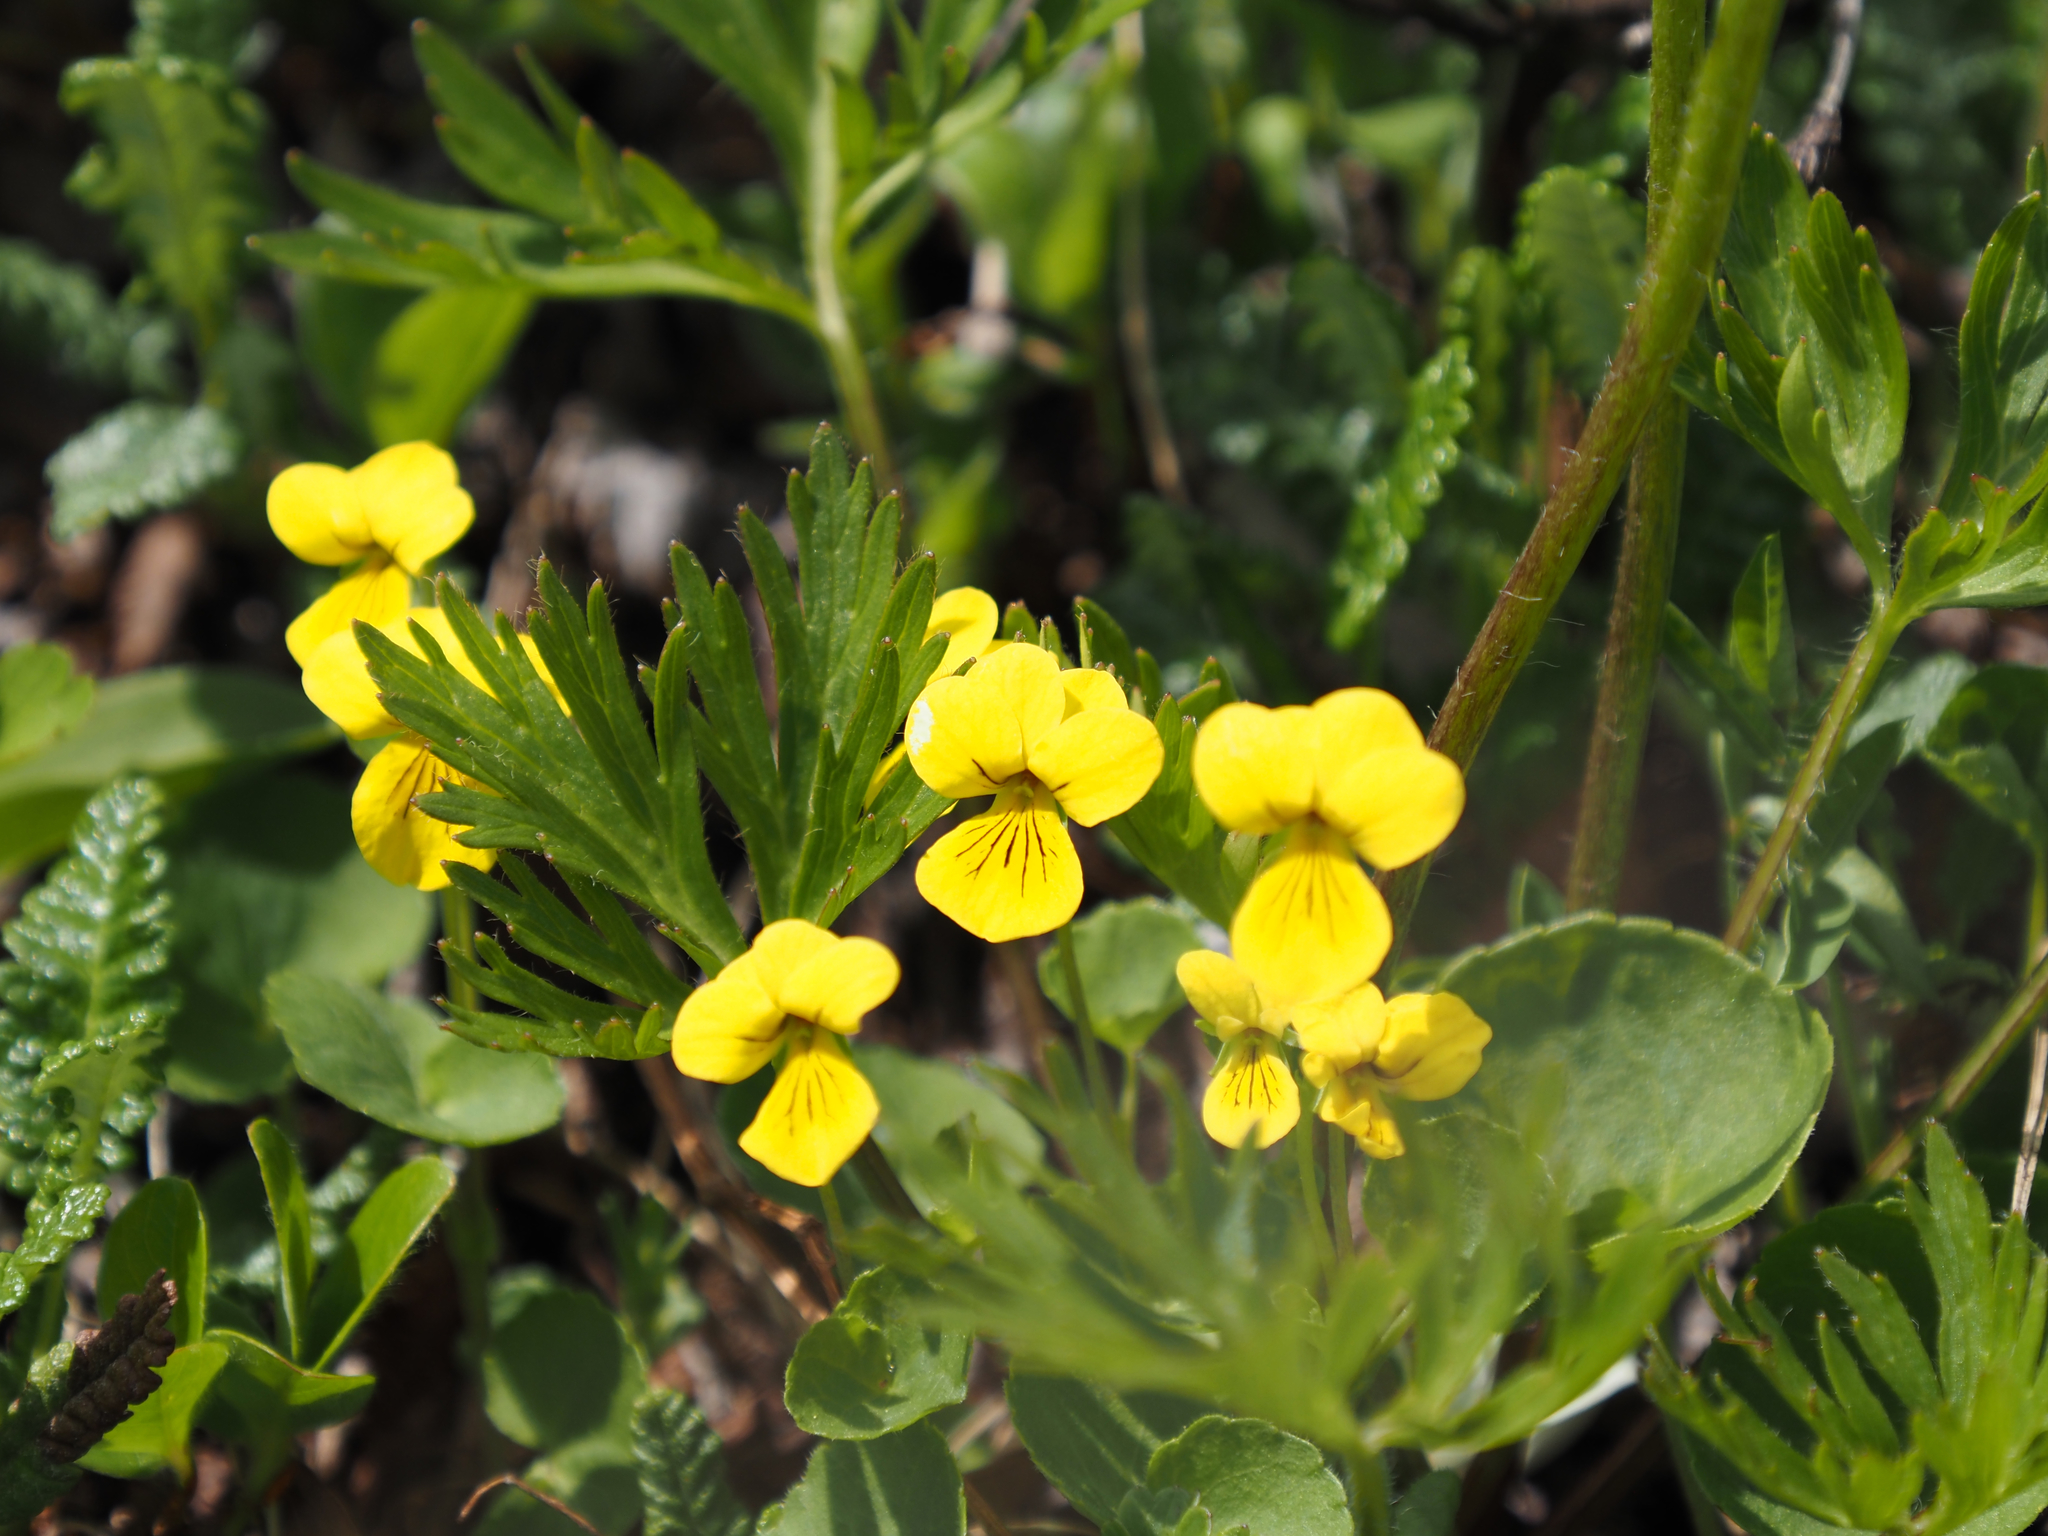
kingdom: Plantae
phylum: Tracheophyta
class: Magnoliopsida
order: Malpighiales
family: Violaceae
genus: Viola
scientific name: Viola biflora
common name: Alpine yellow violet
